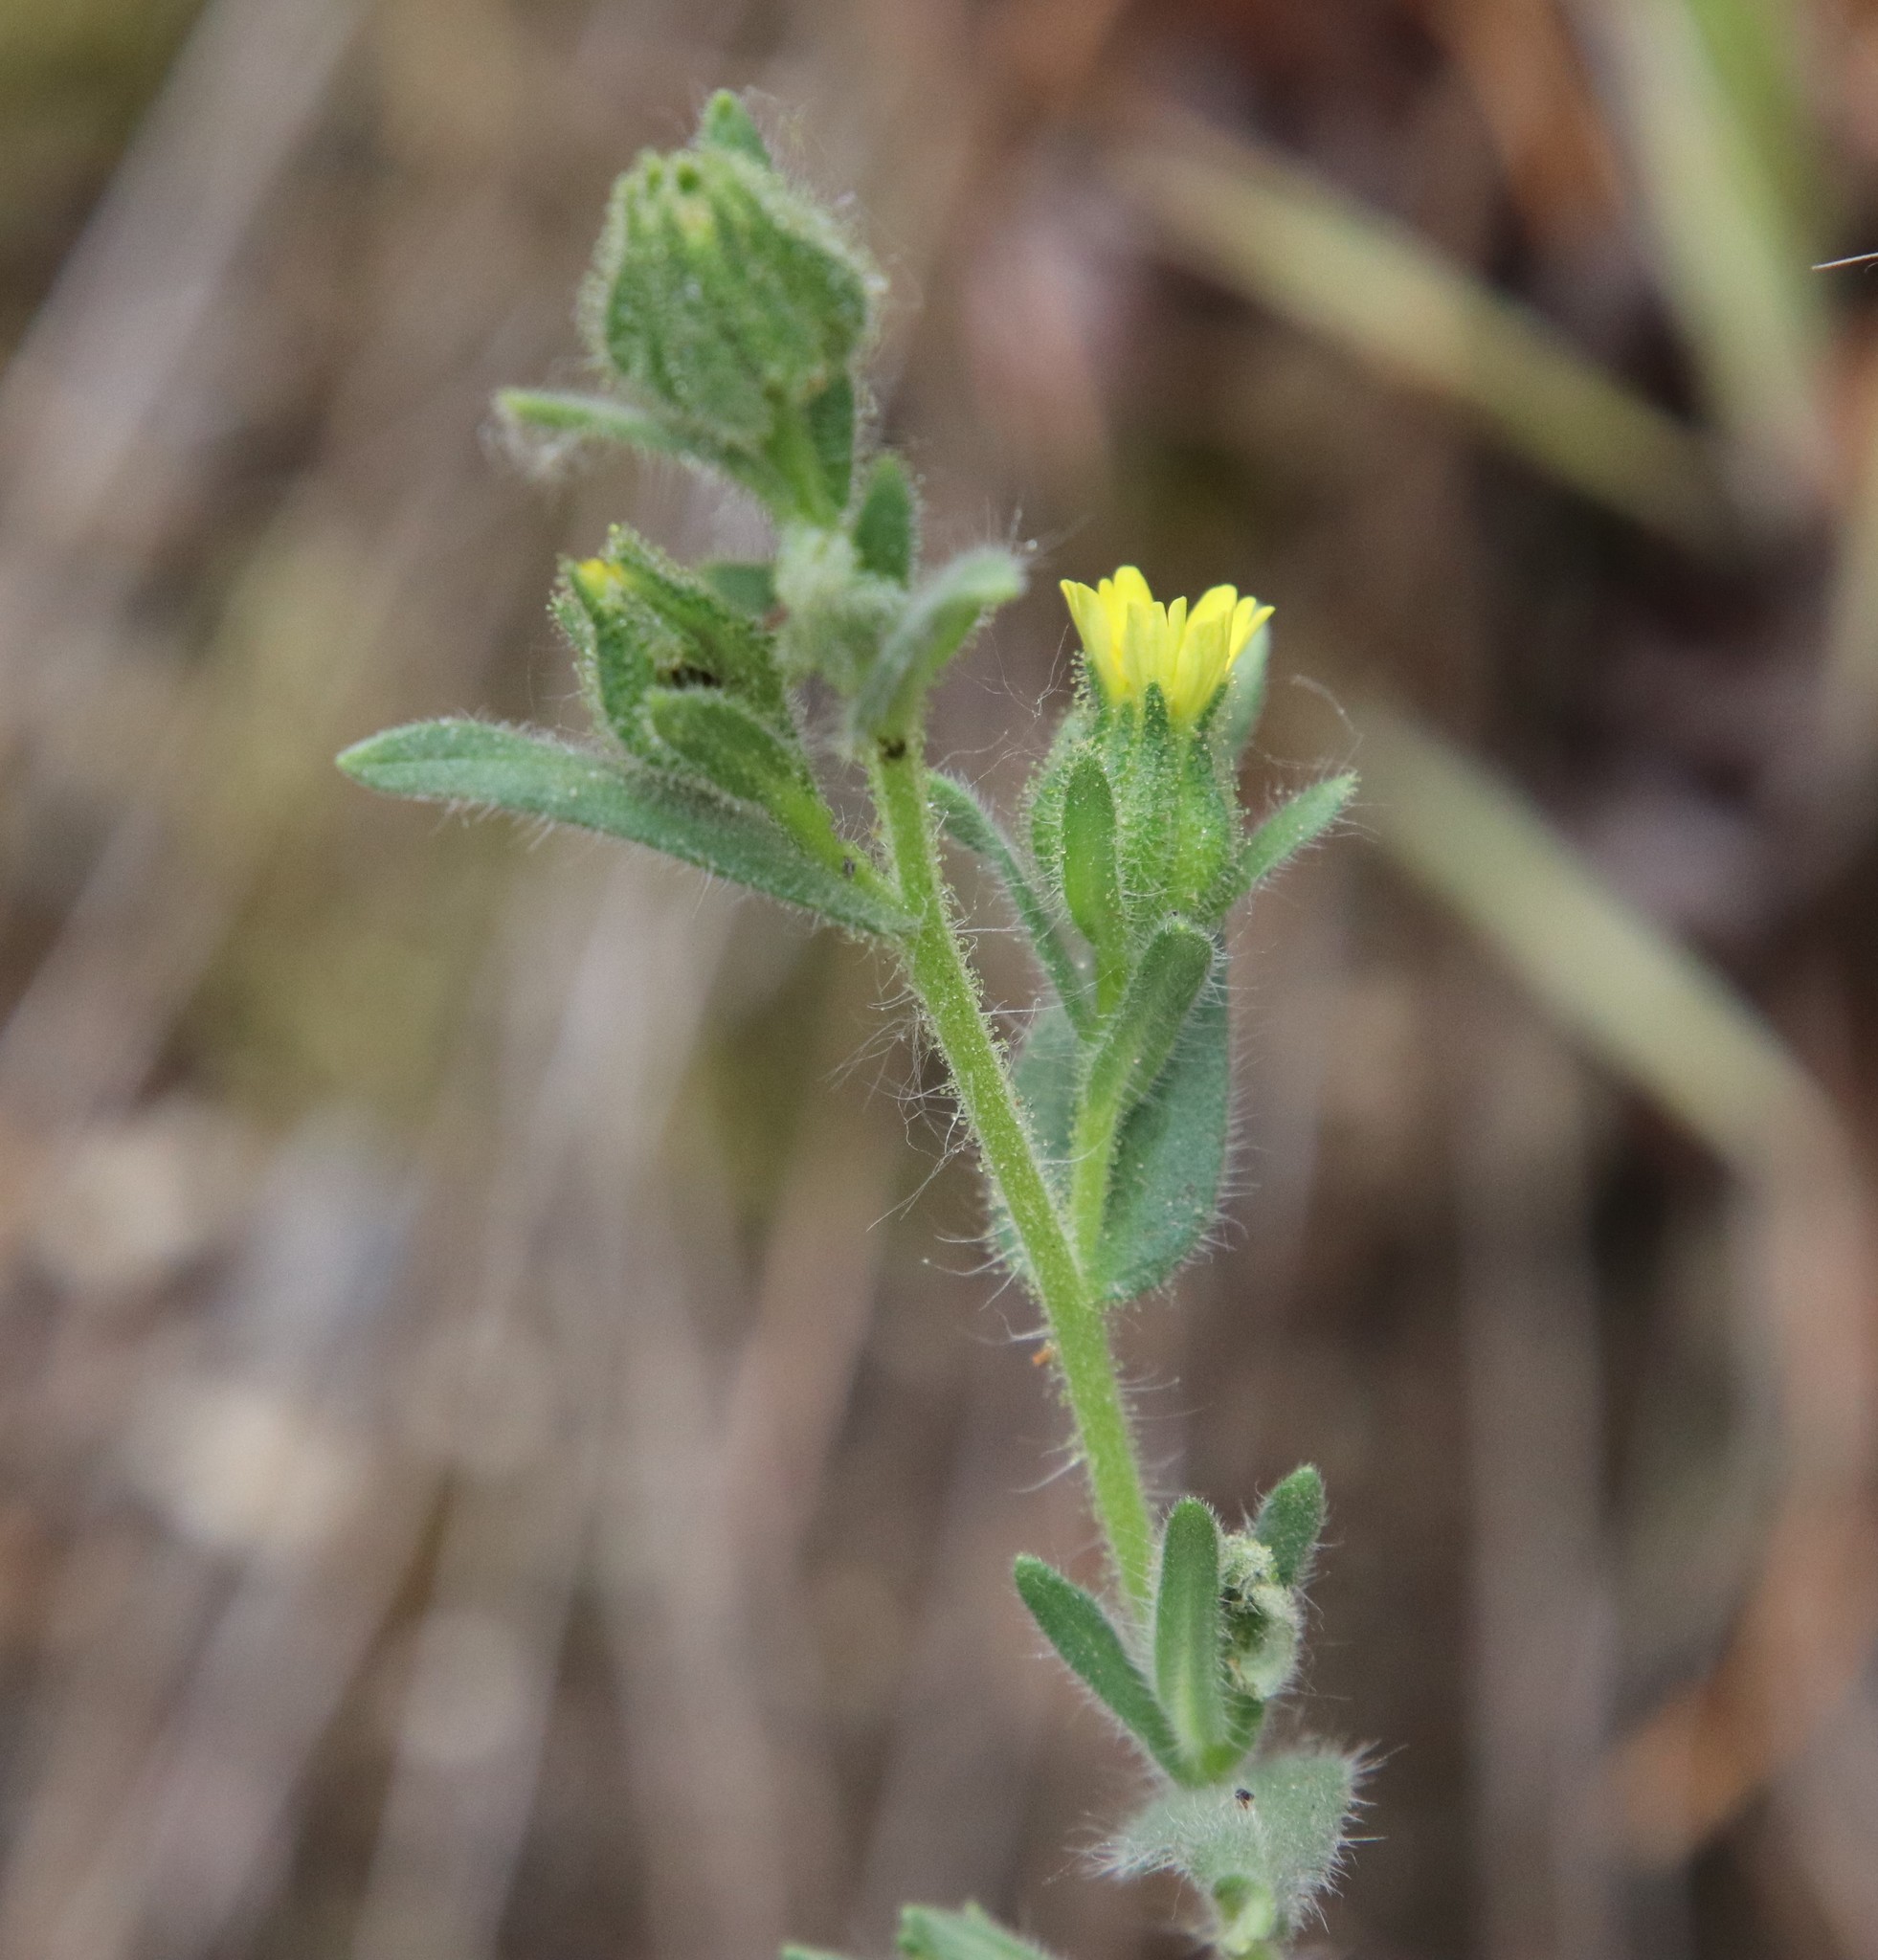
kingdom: Plantae
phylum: Tracheophyta
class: Magnoliopsida
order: Asterales
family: Asteraceae
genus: Madia
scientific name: Madia gracilis
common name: Grassy tarweed
